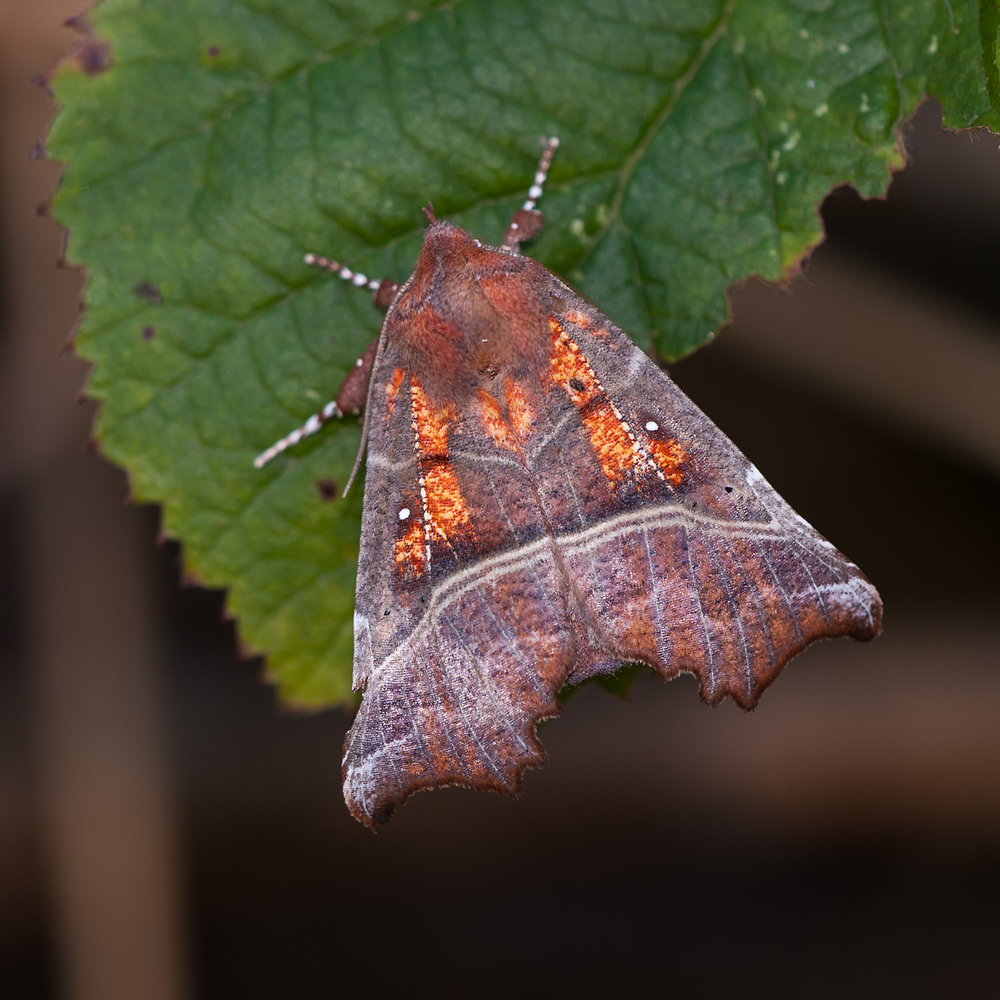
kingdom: Animalia
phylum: Arthropoda
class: Insecta
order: Lepidoptera
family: Erebidae
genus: Scoliopteryx
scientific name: Scoliopteryx libatrix
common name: Herald
